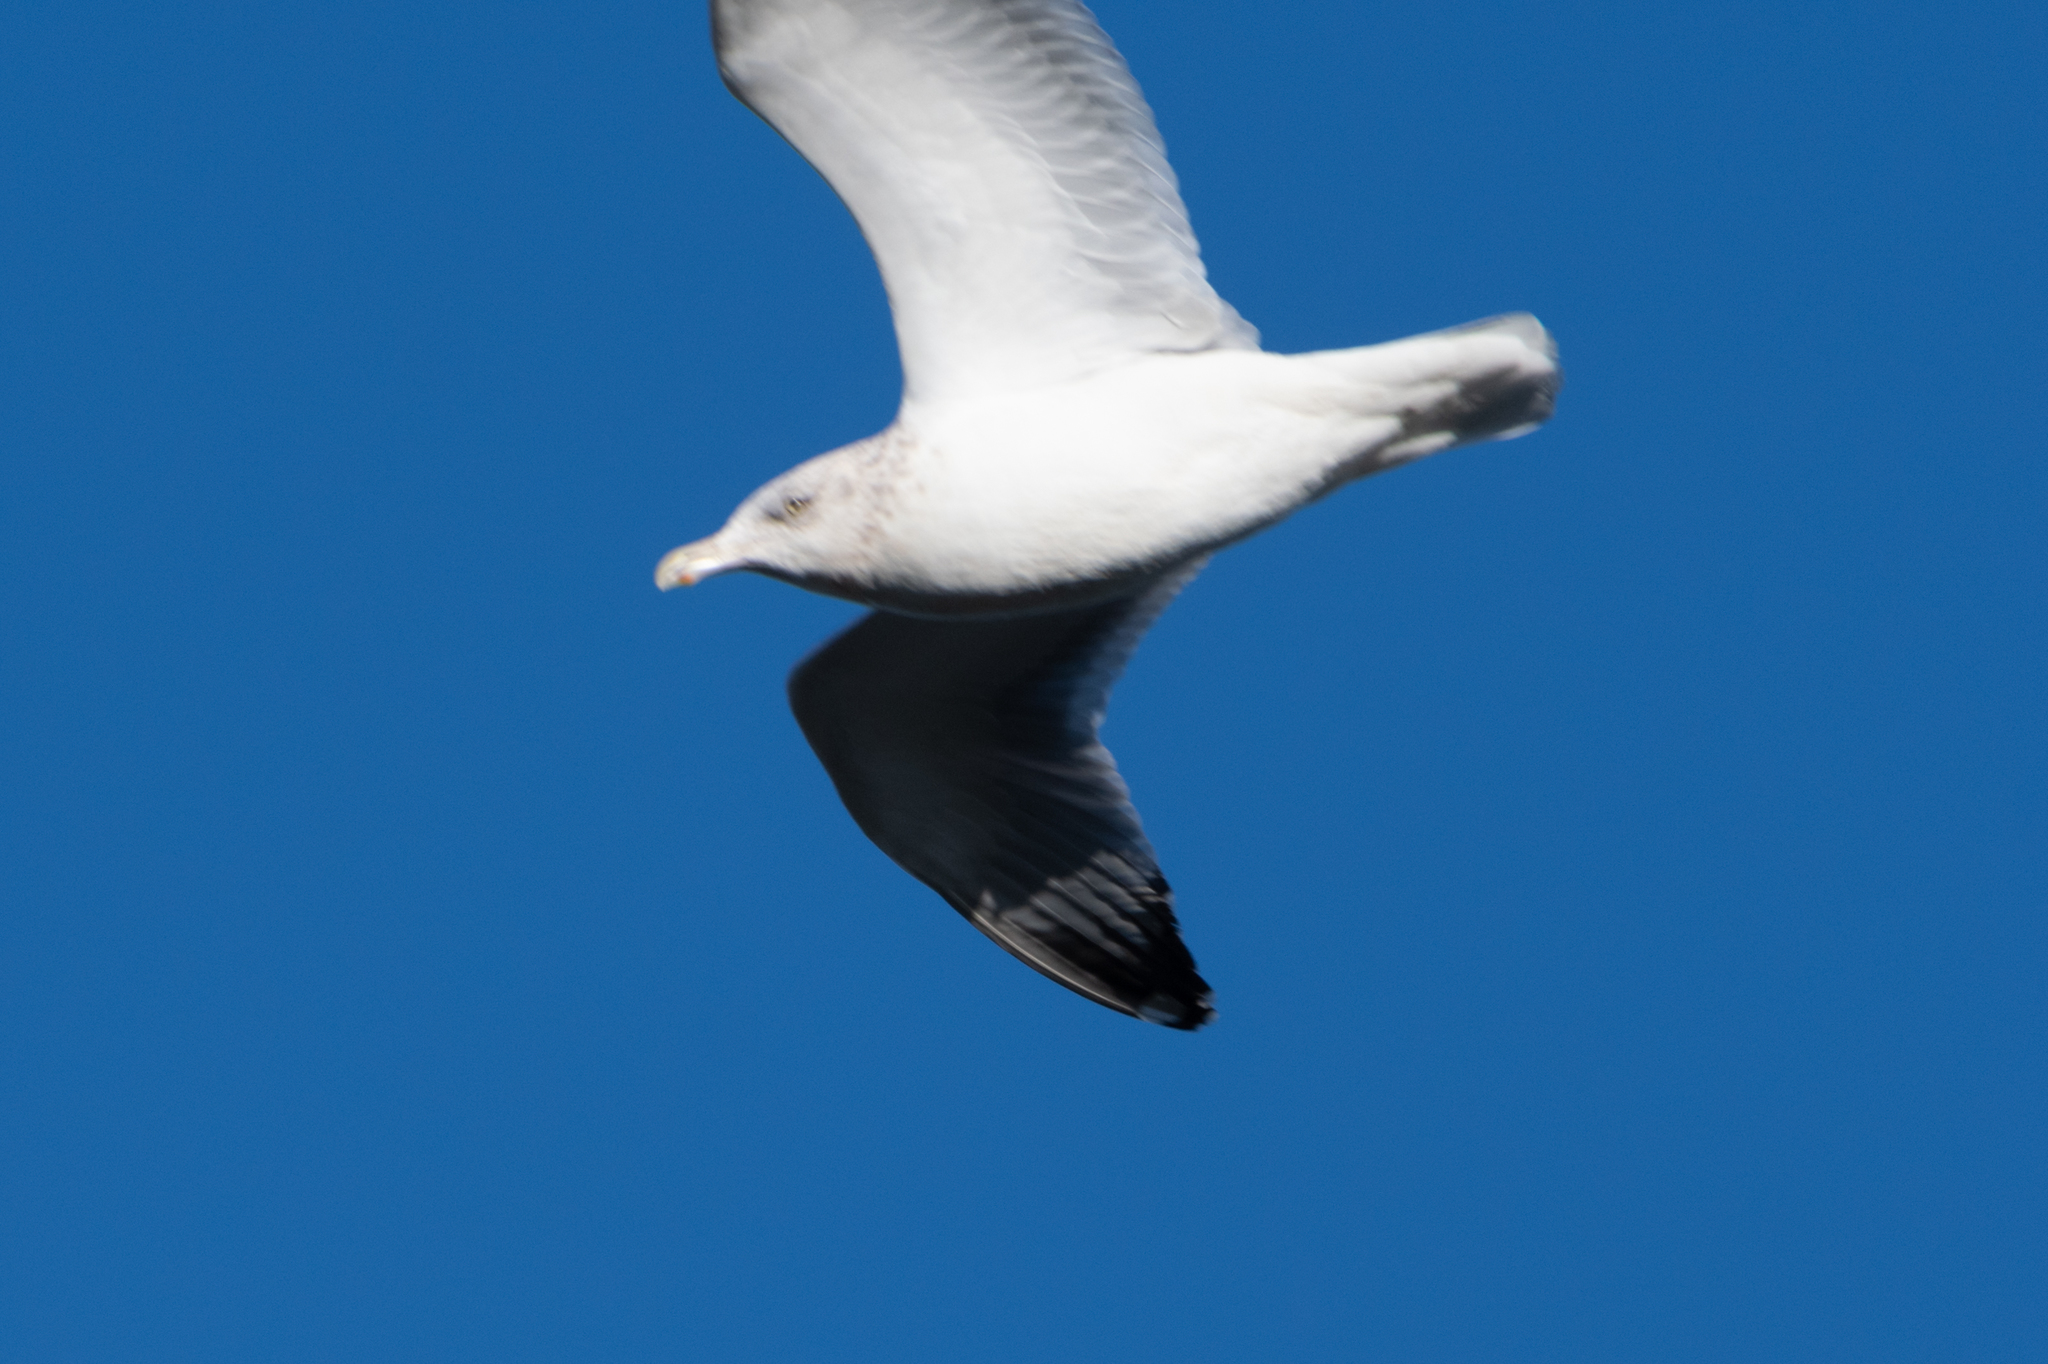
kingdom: Animalia
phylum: Chordata
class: Aves
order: Charadriiformes
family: Laridae
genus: Larus
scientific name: Larus argentatus
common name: Herring gull
